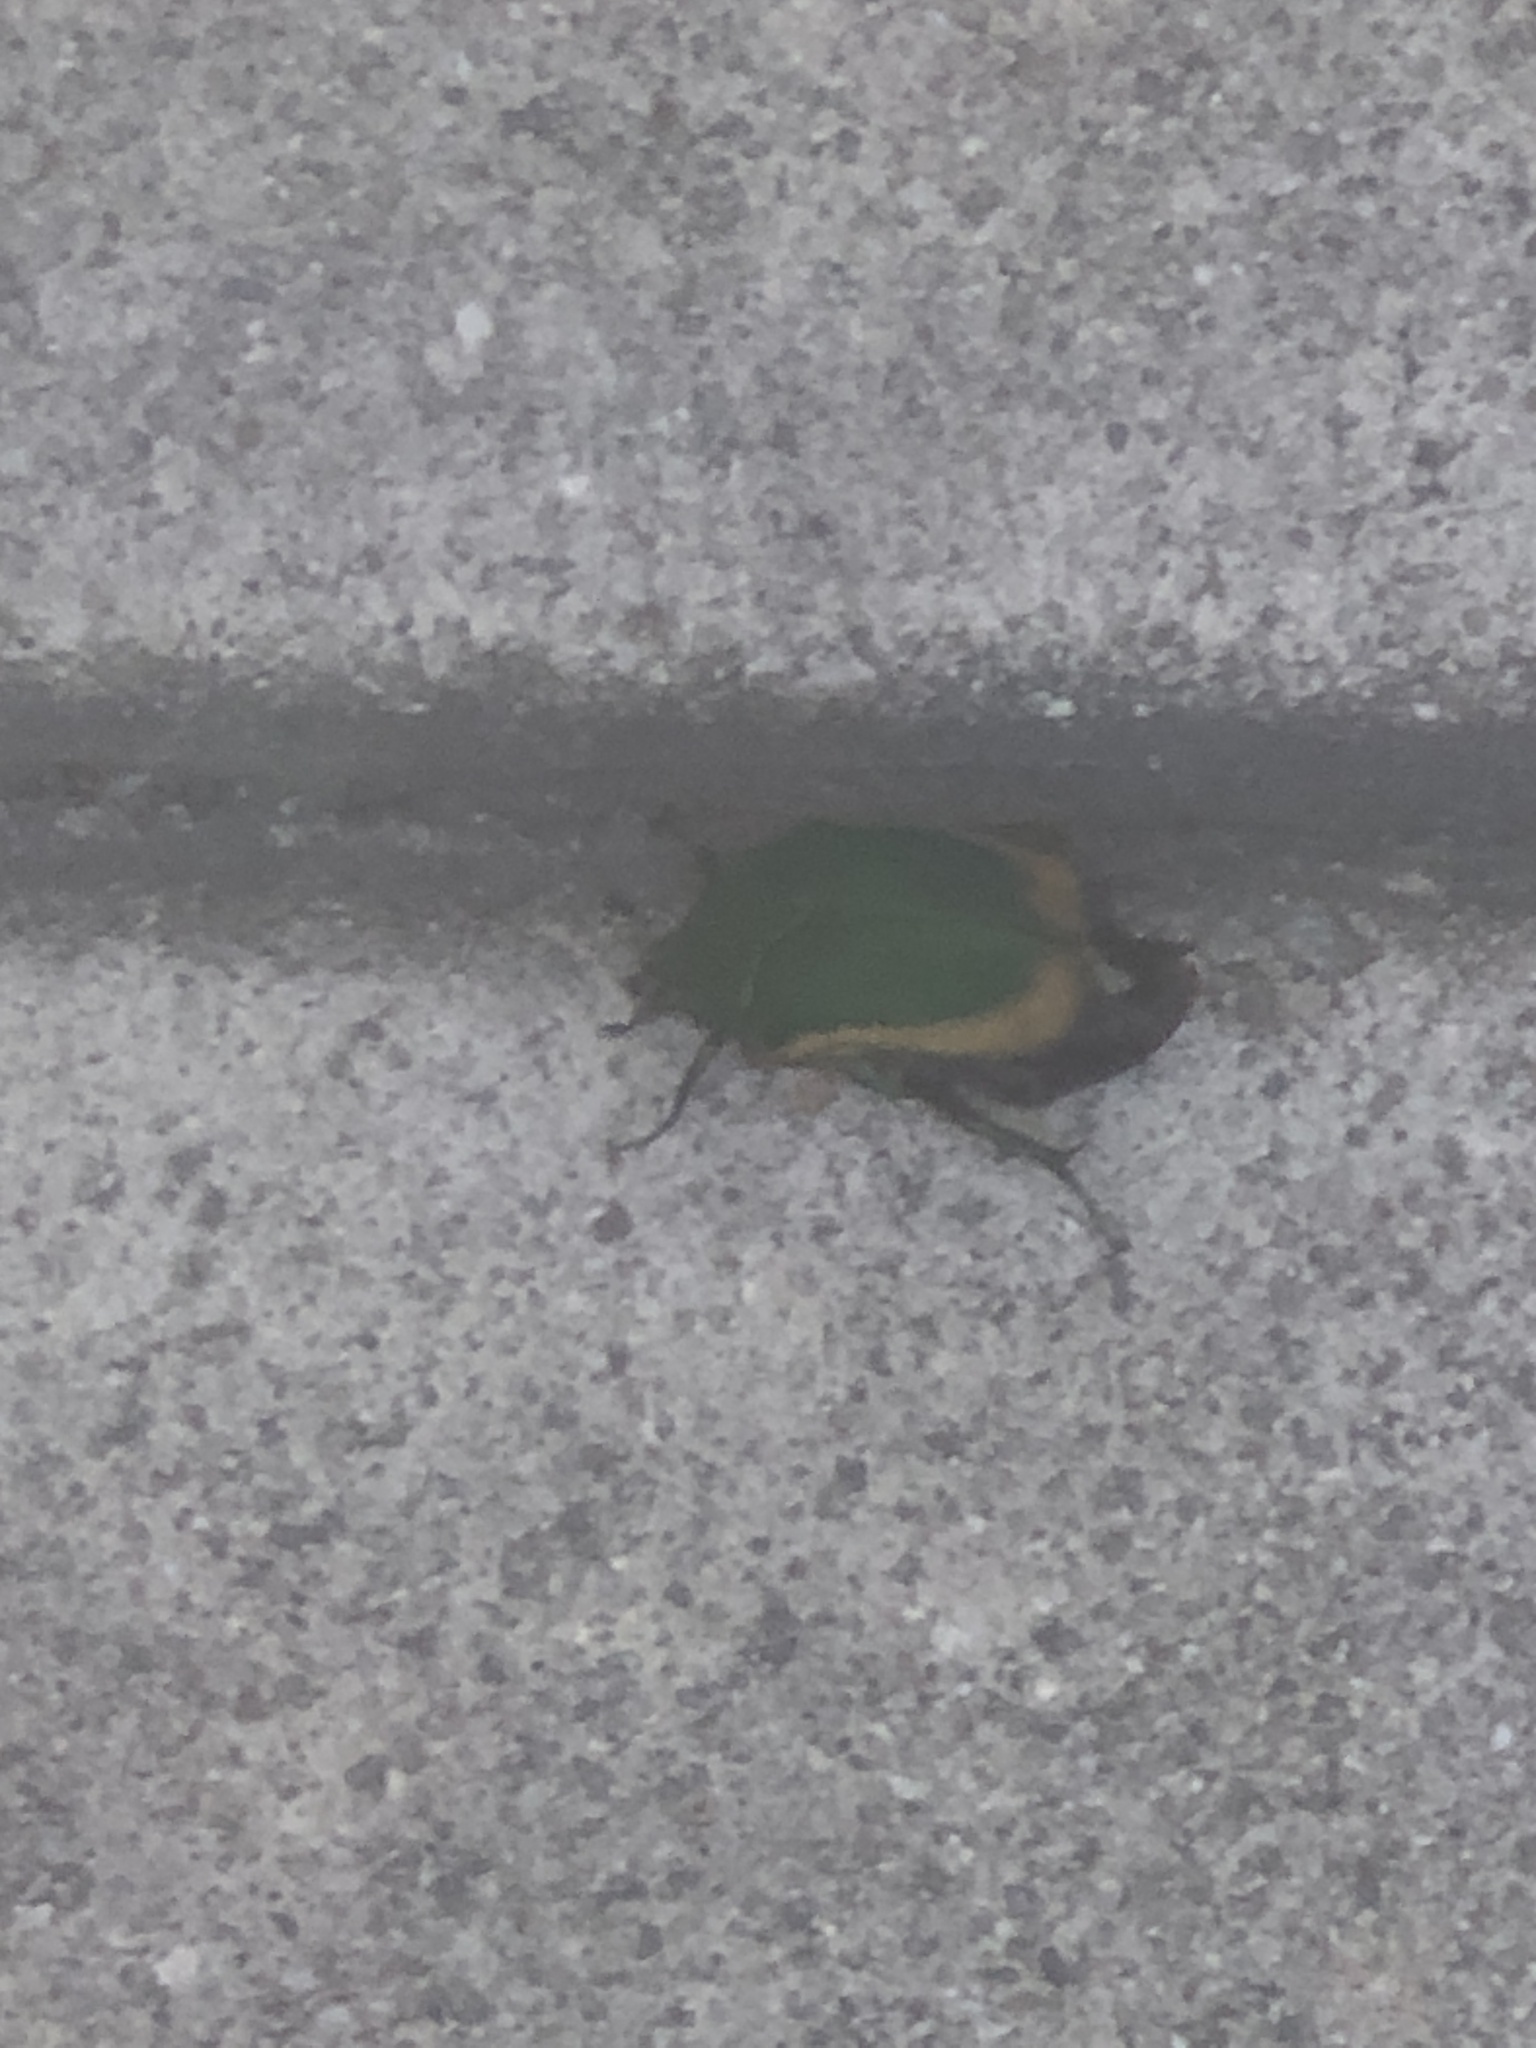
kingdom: Animalia
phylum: Arthropoda
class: Insecta
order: Coleoptera
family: Scarabaeidae
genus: Cotinis
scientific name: Cotinis mutabilis
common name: Figeater beetle
